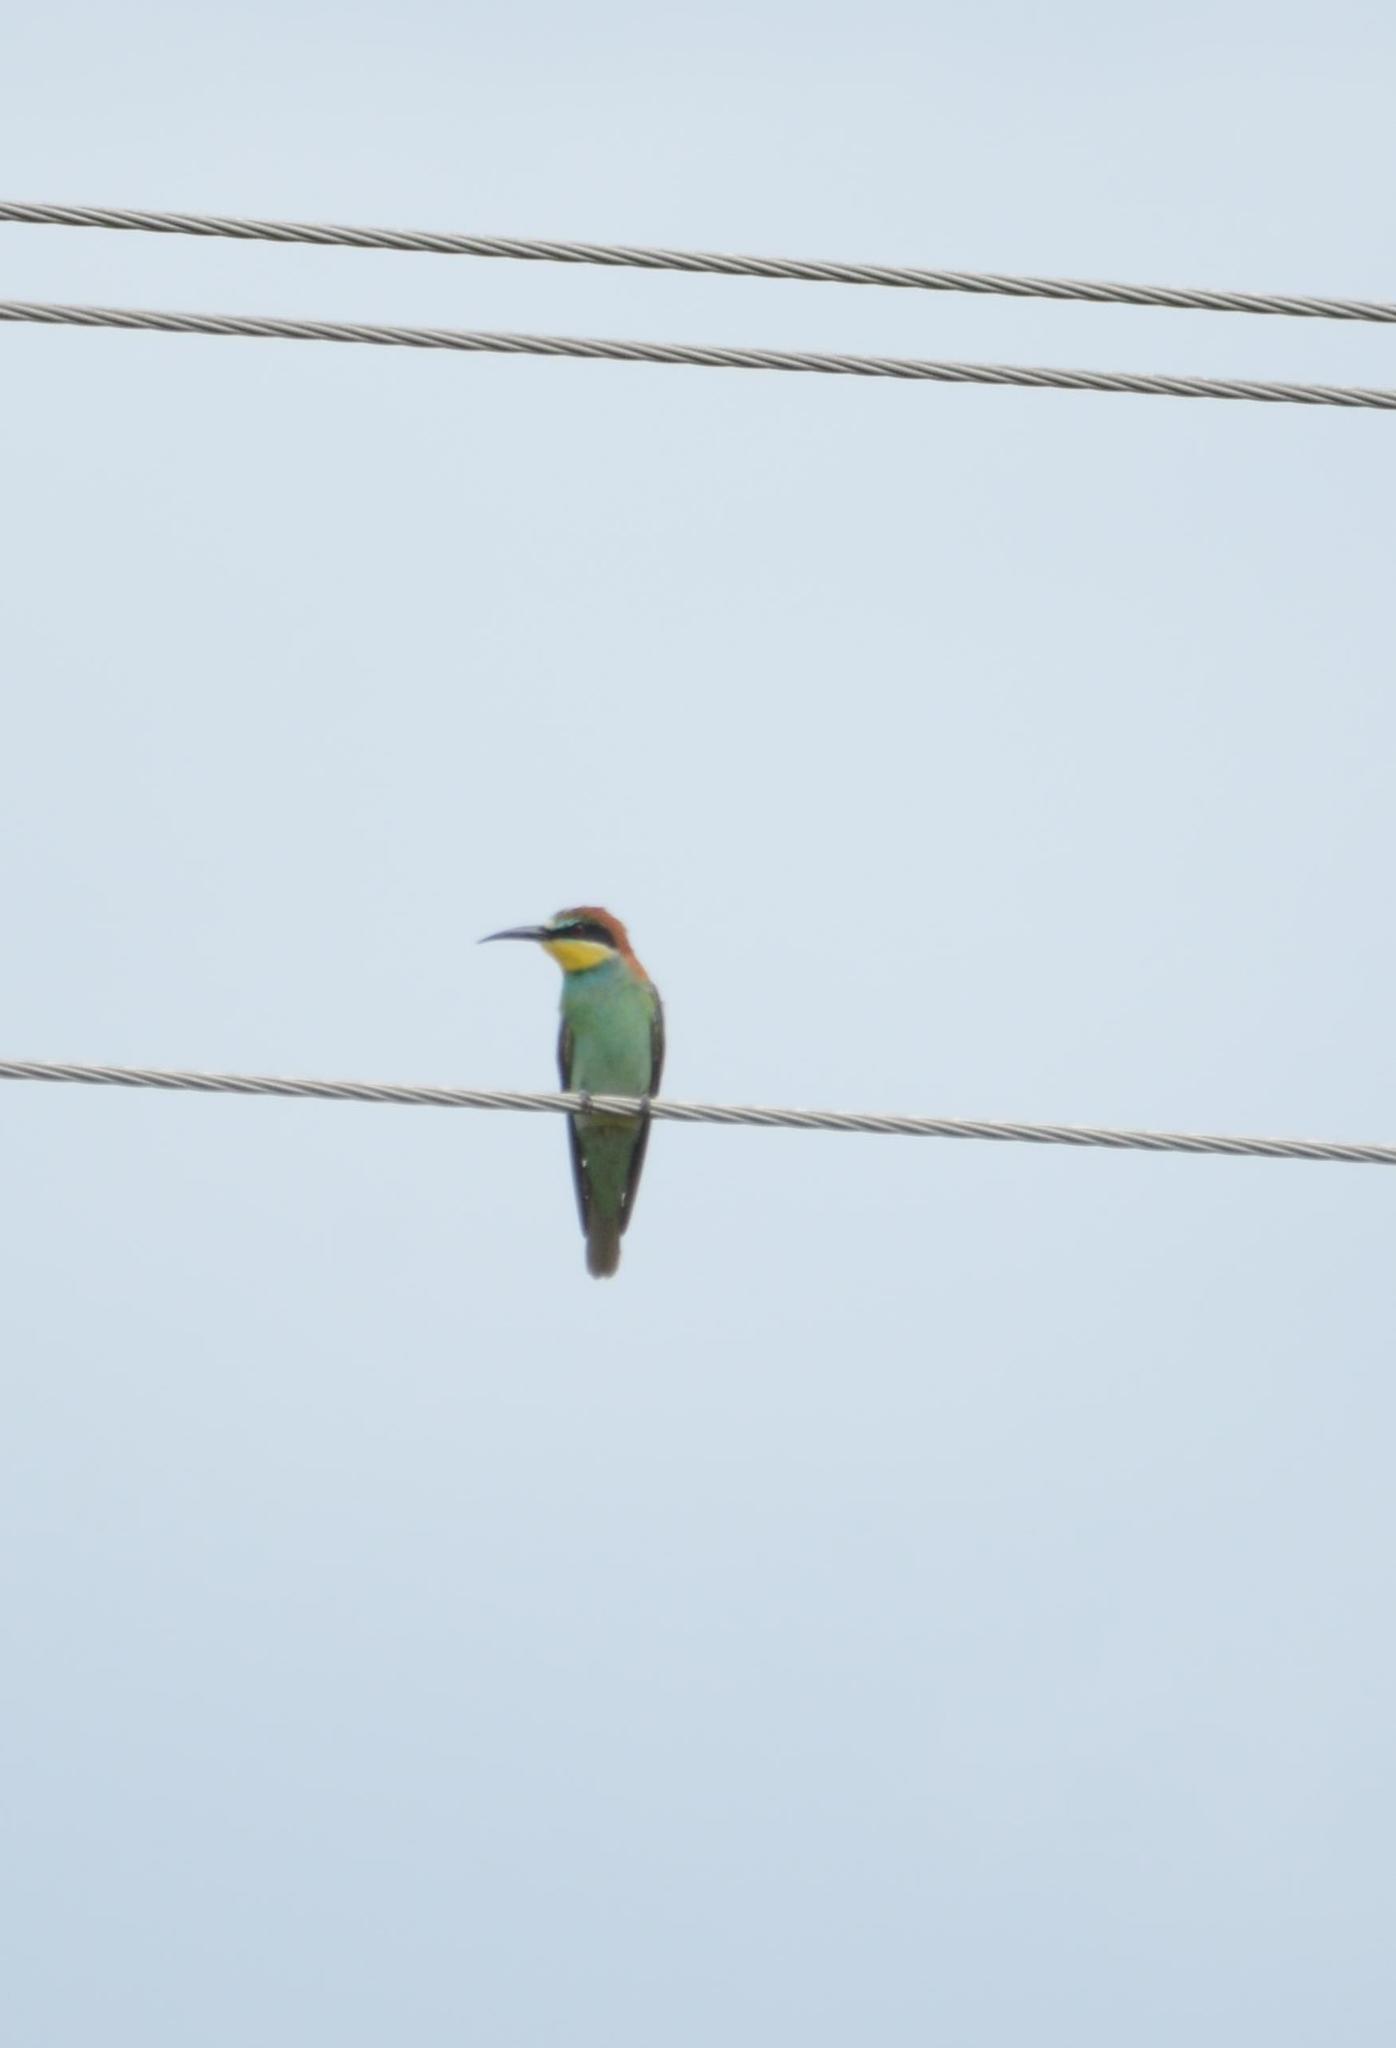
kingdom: Animalia
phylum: Chordata
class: Aves
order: Coraciiformes
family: Meropidae
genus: Merops
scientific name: Merops apiaster
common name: European bee-eater
